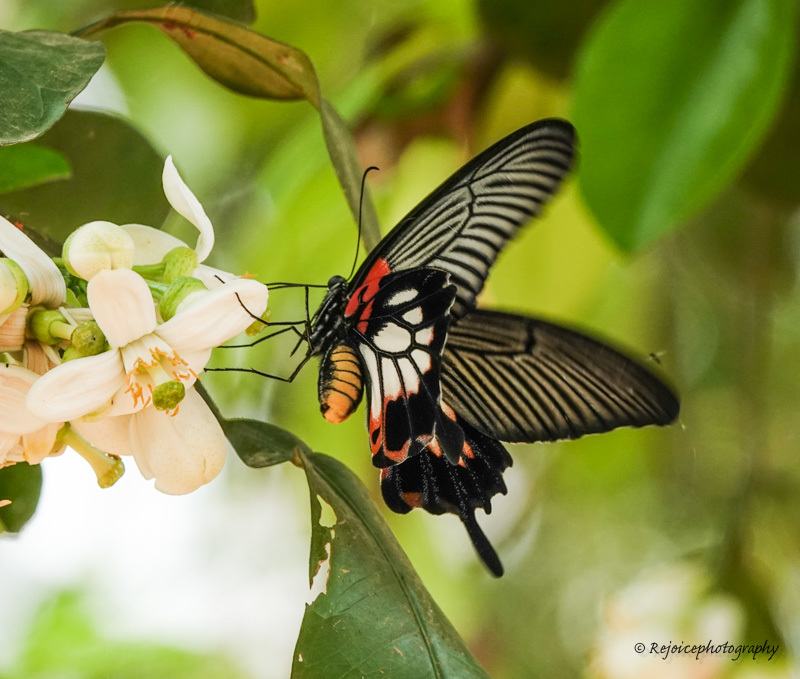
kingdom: Animalia
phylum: Arthropoda
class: Insecta
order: Lepidoptera
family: Papilionidae
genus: Papilio
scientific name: Papilio memnon
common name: Great mormon
